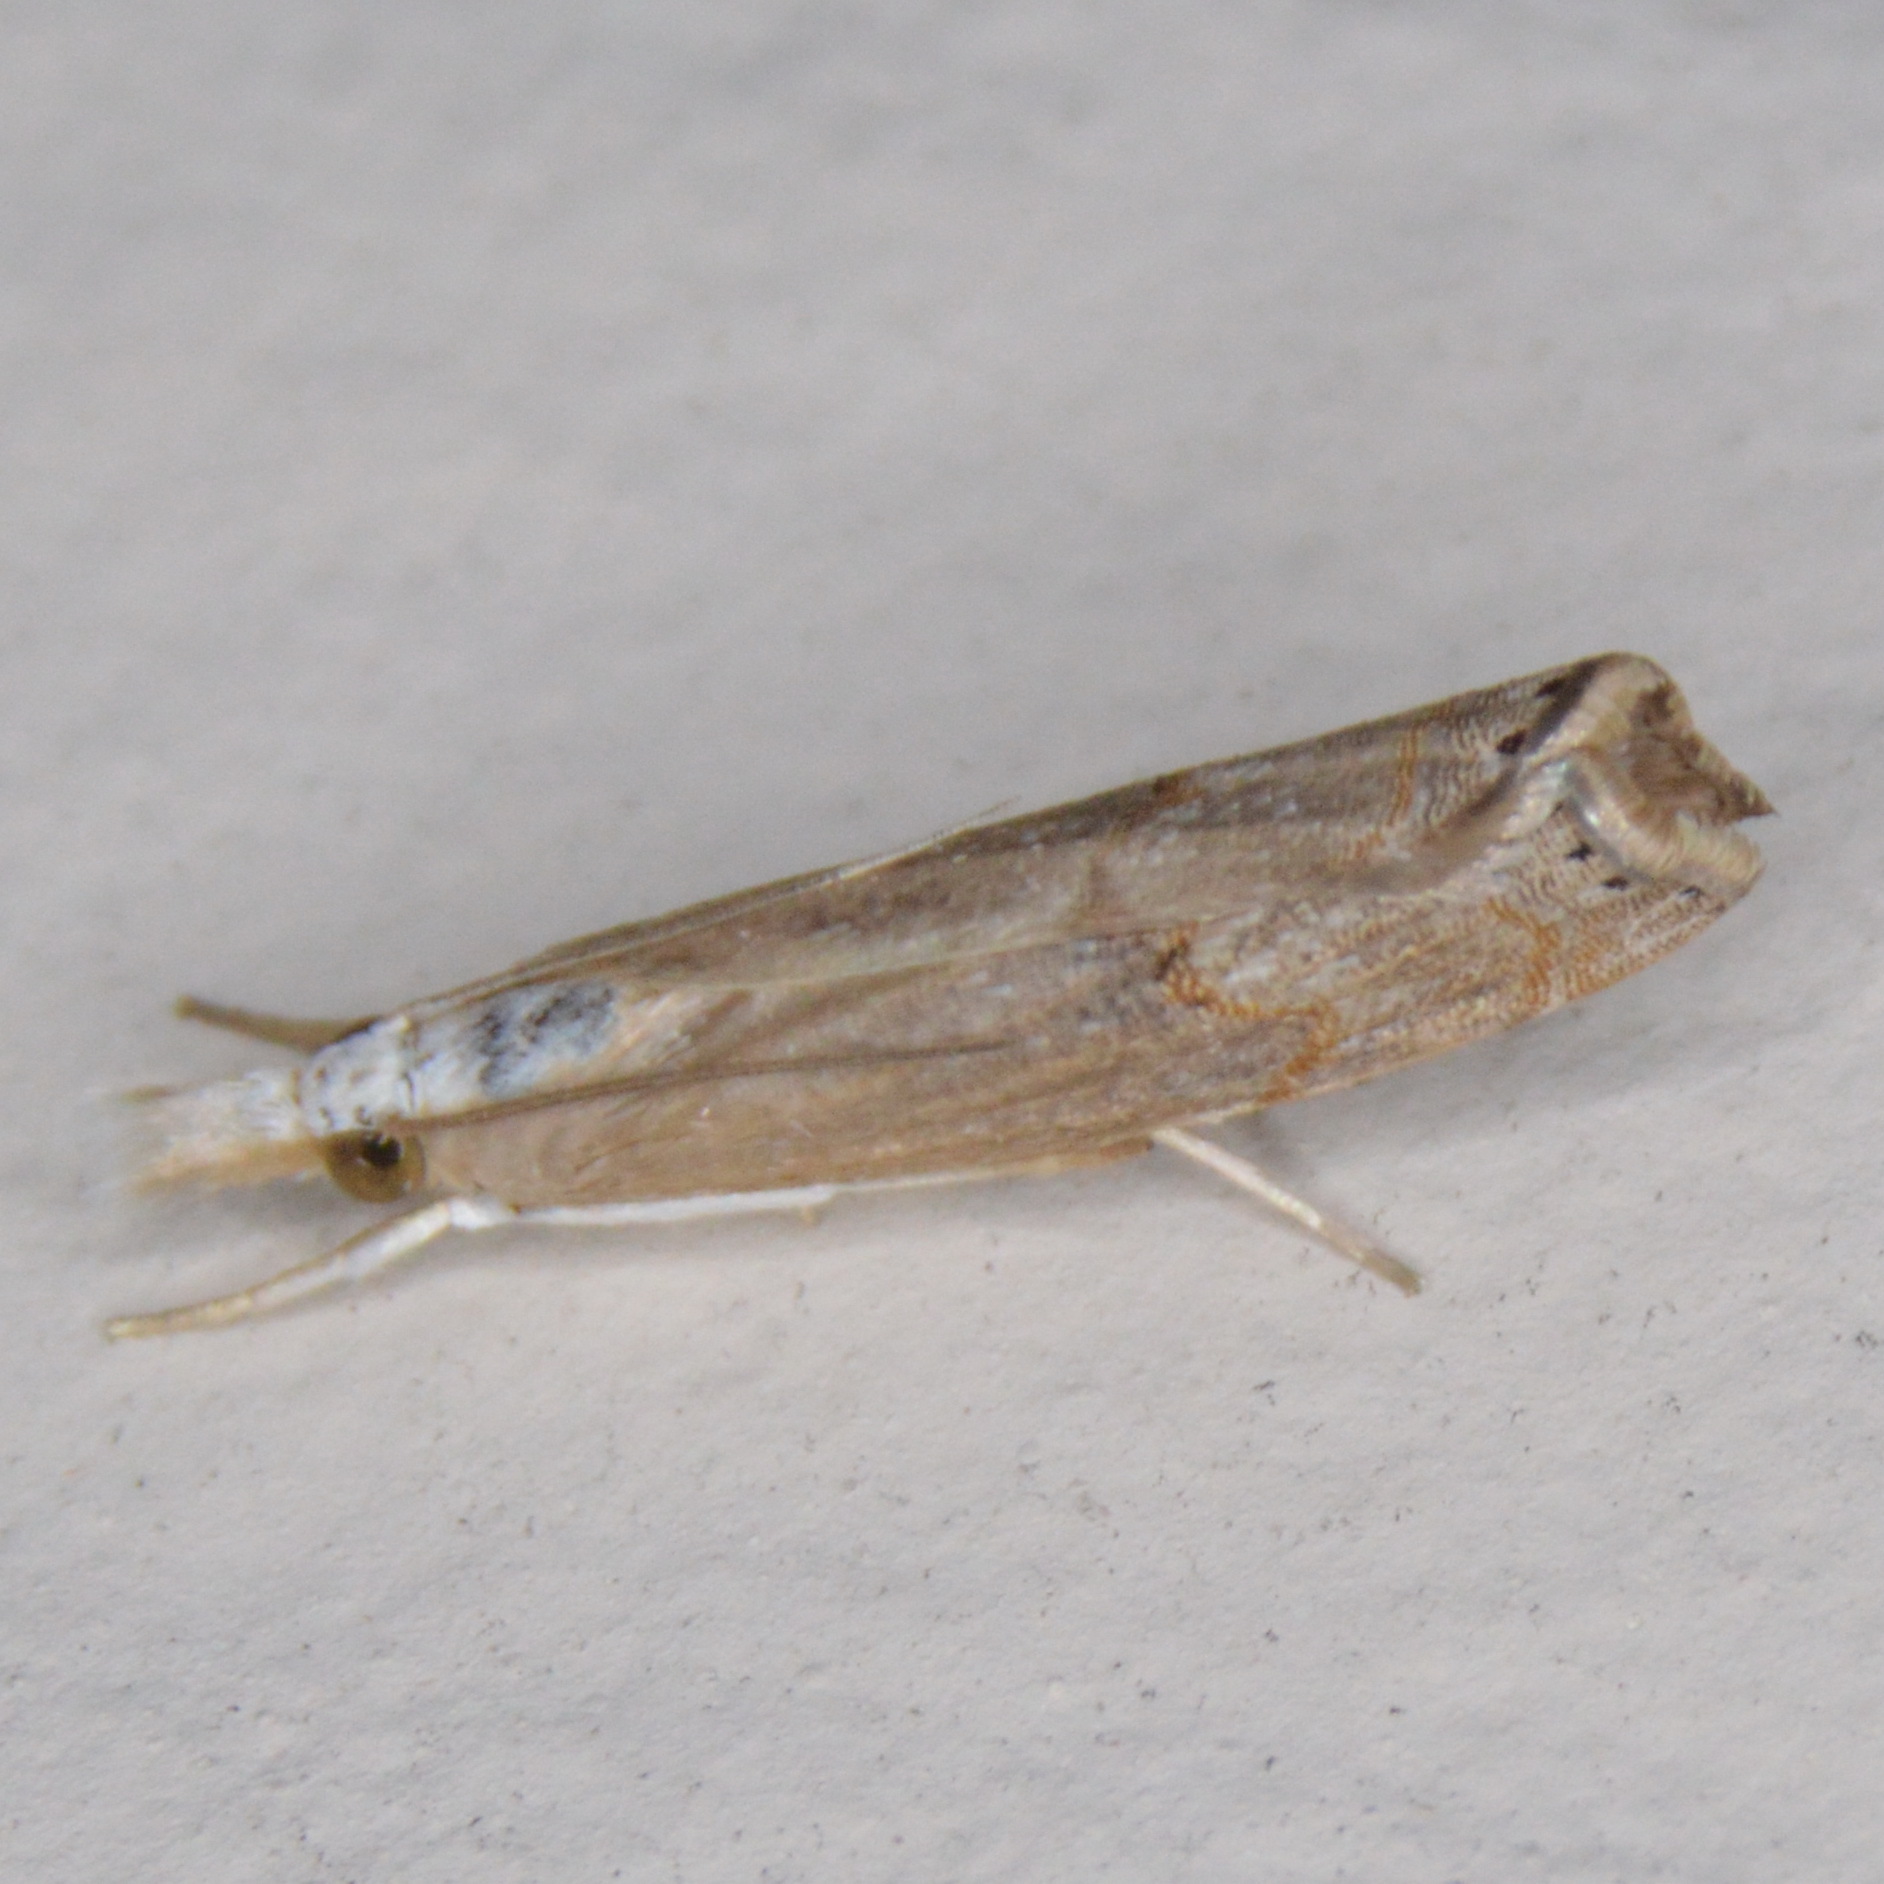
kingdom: Animalia
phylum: Arthropoda
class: Insecta
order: Lepidoptera
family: Crambidae
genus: Parapediasia
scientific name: Parapediasia teterellus
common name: Bluegrass webworm moth
